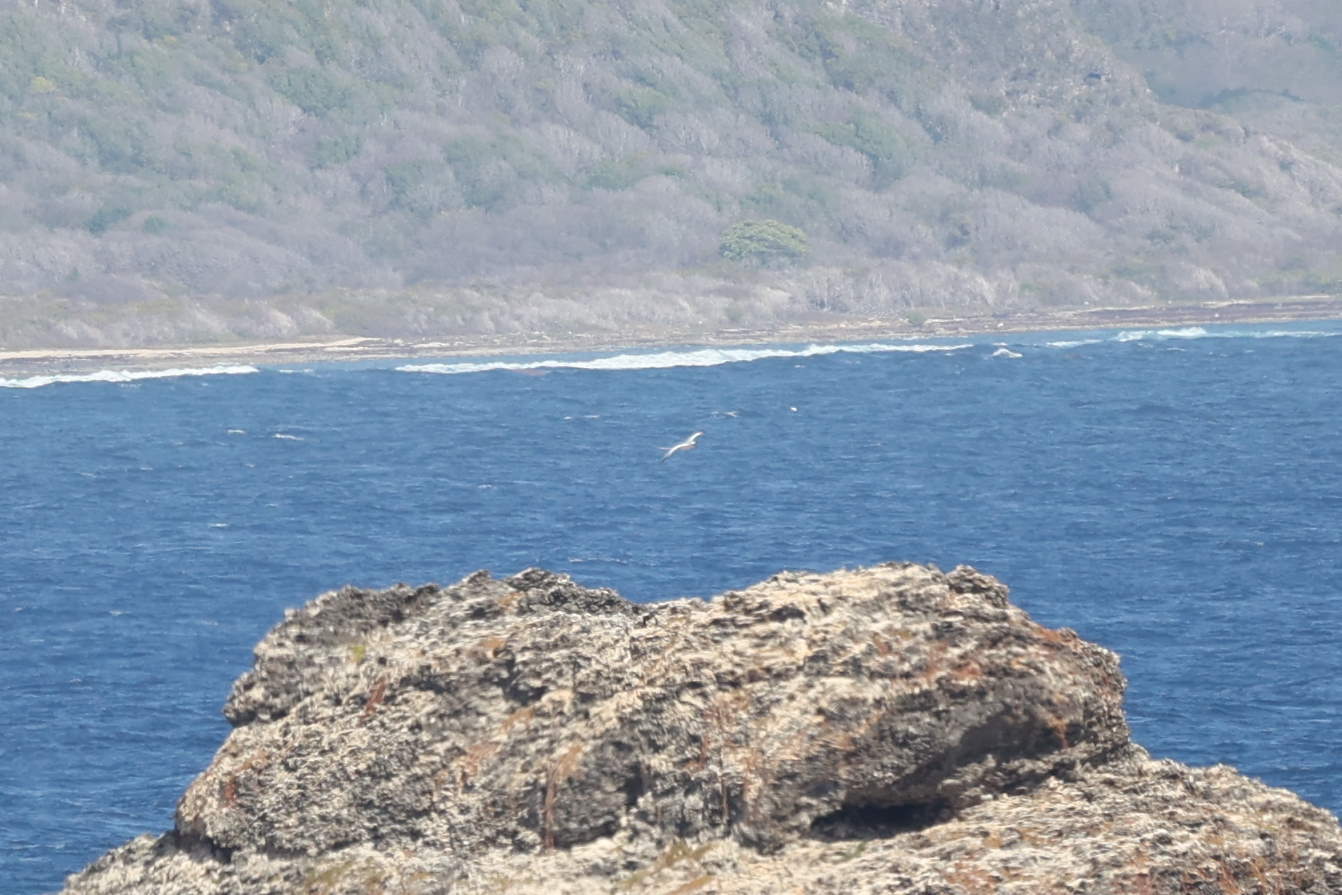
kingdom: Animalia
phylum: Chordata
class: Aves
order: Phaethontiformes
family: Phaethontidae
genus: Phaethon
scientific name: Phaethon aethereus
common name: Red-billed tropicbird
